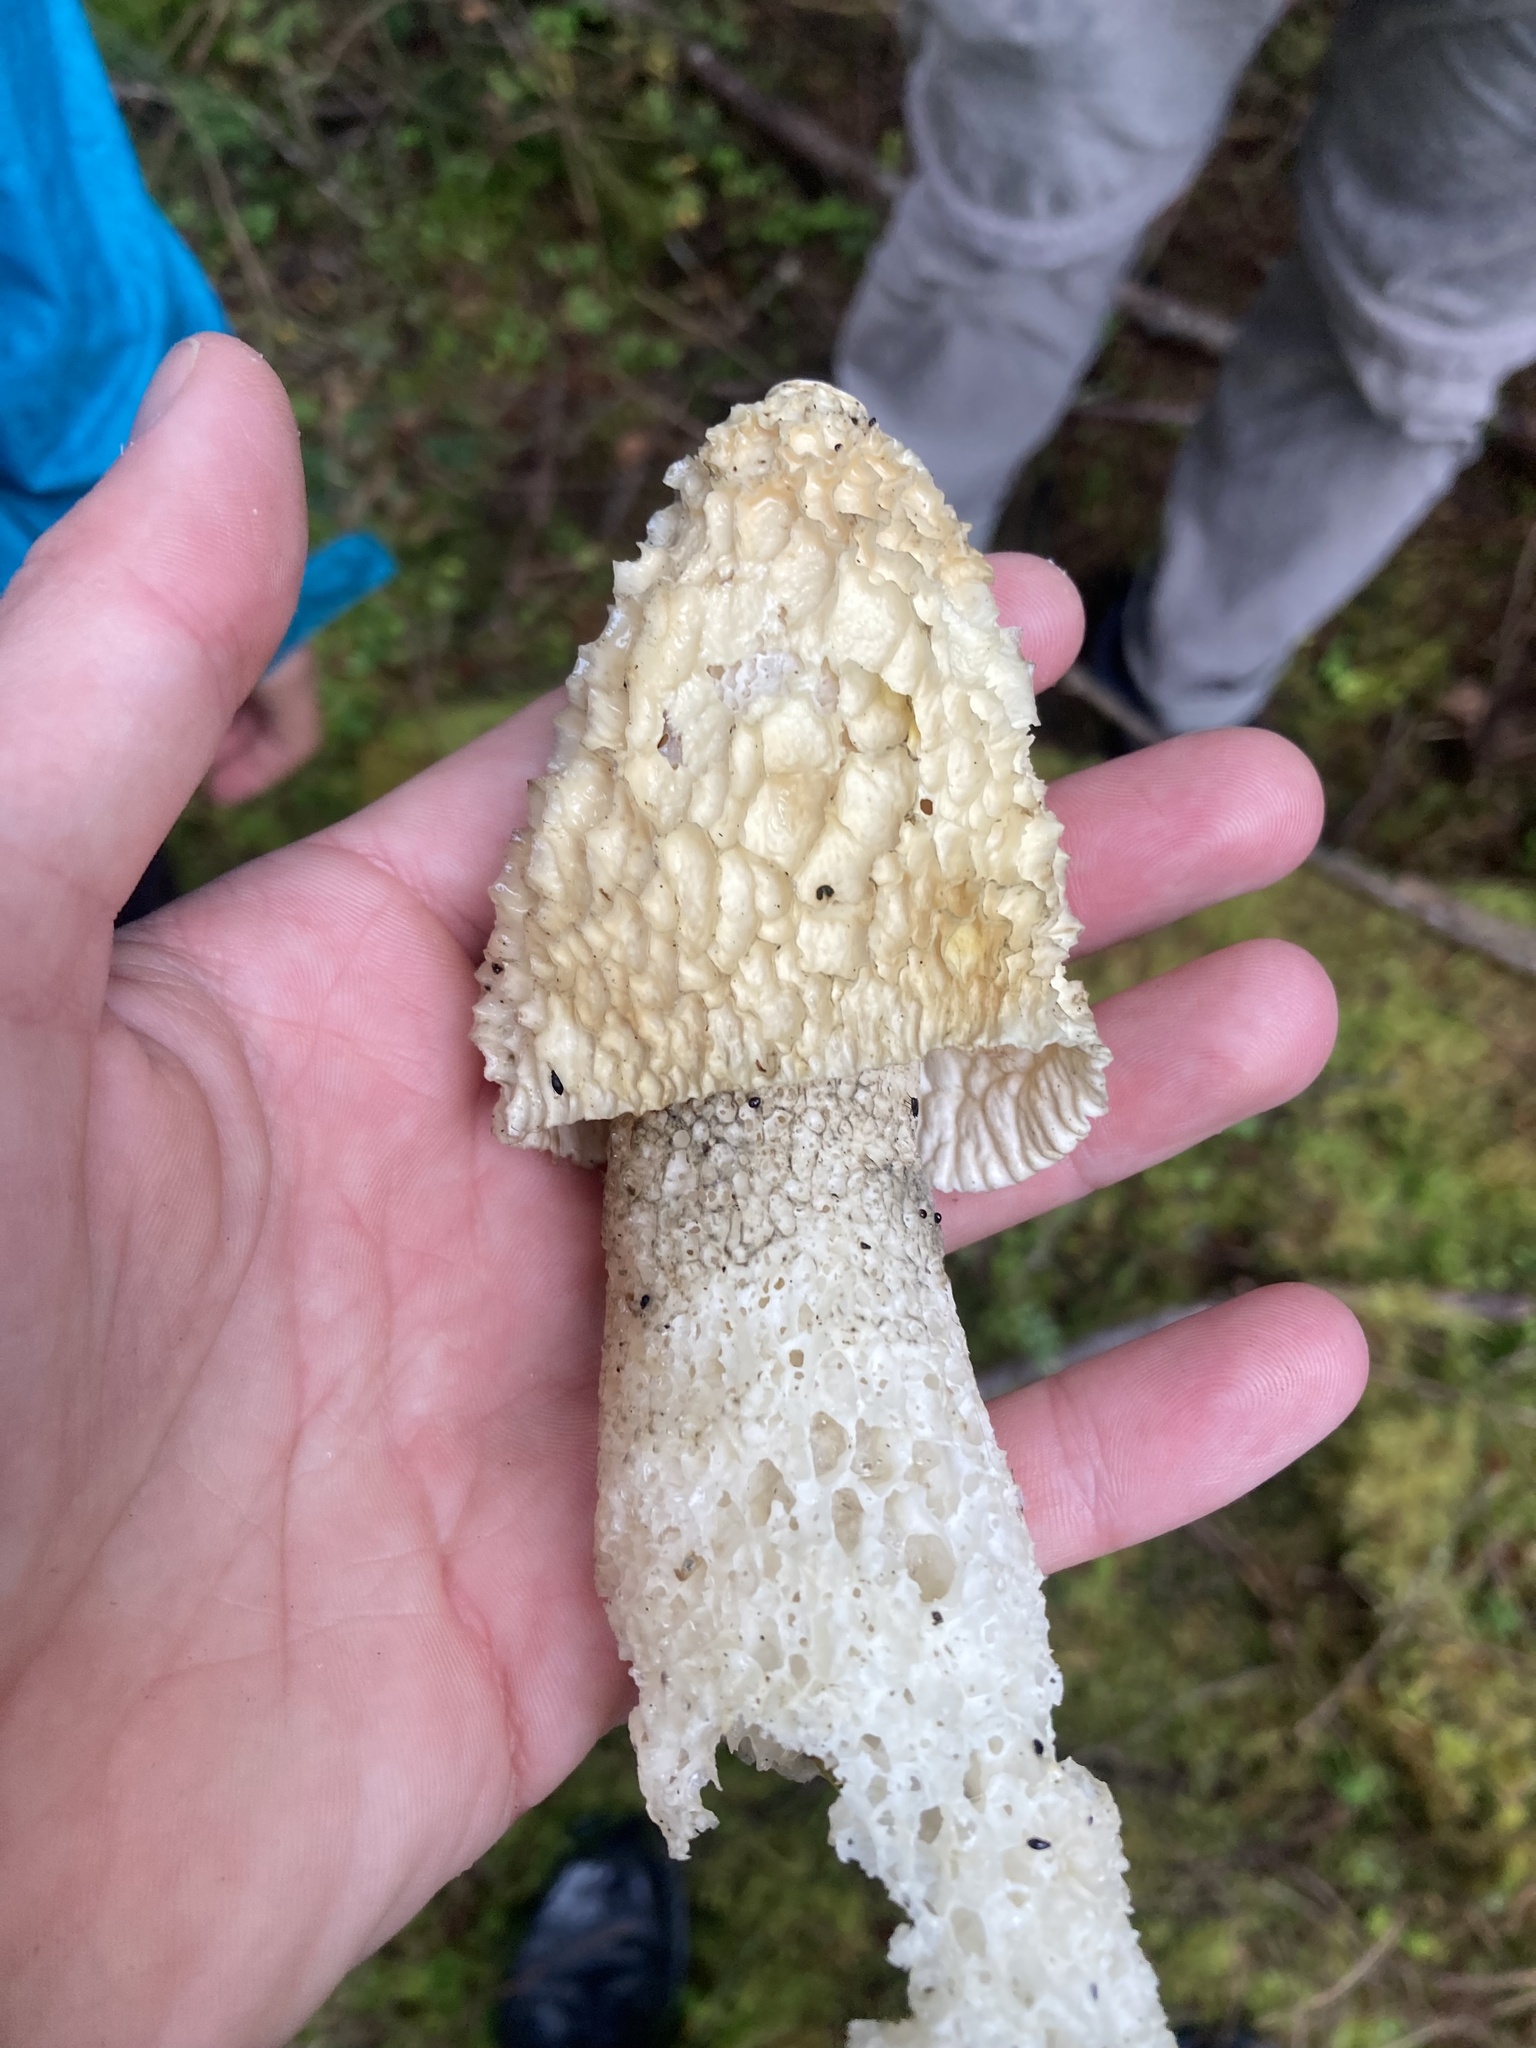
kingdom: Fungi
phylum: Basidiomycota
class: Agaricomycetes
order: Phallales
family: Phallaceae
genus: Phallus
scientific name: Phallus impudicus
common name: Common stinkhorn
